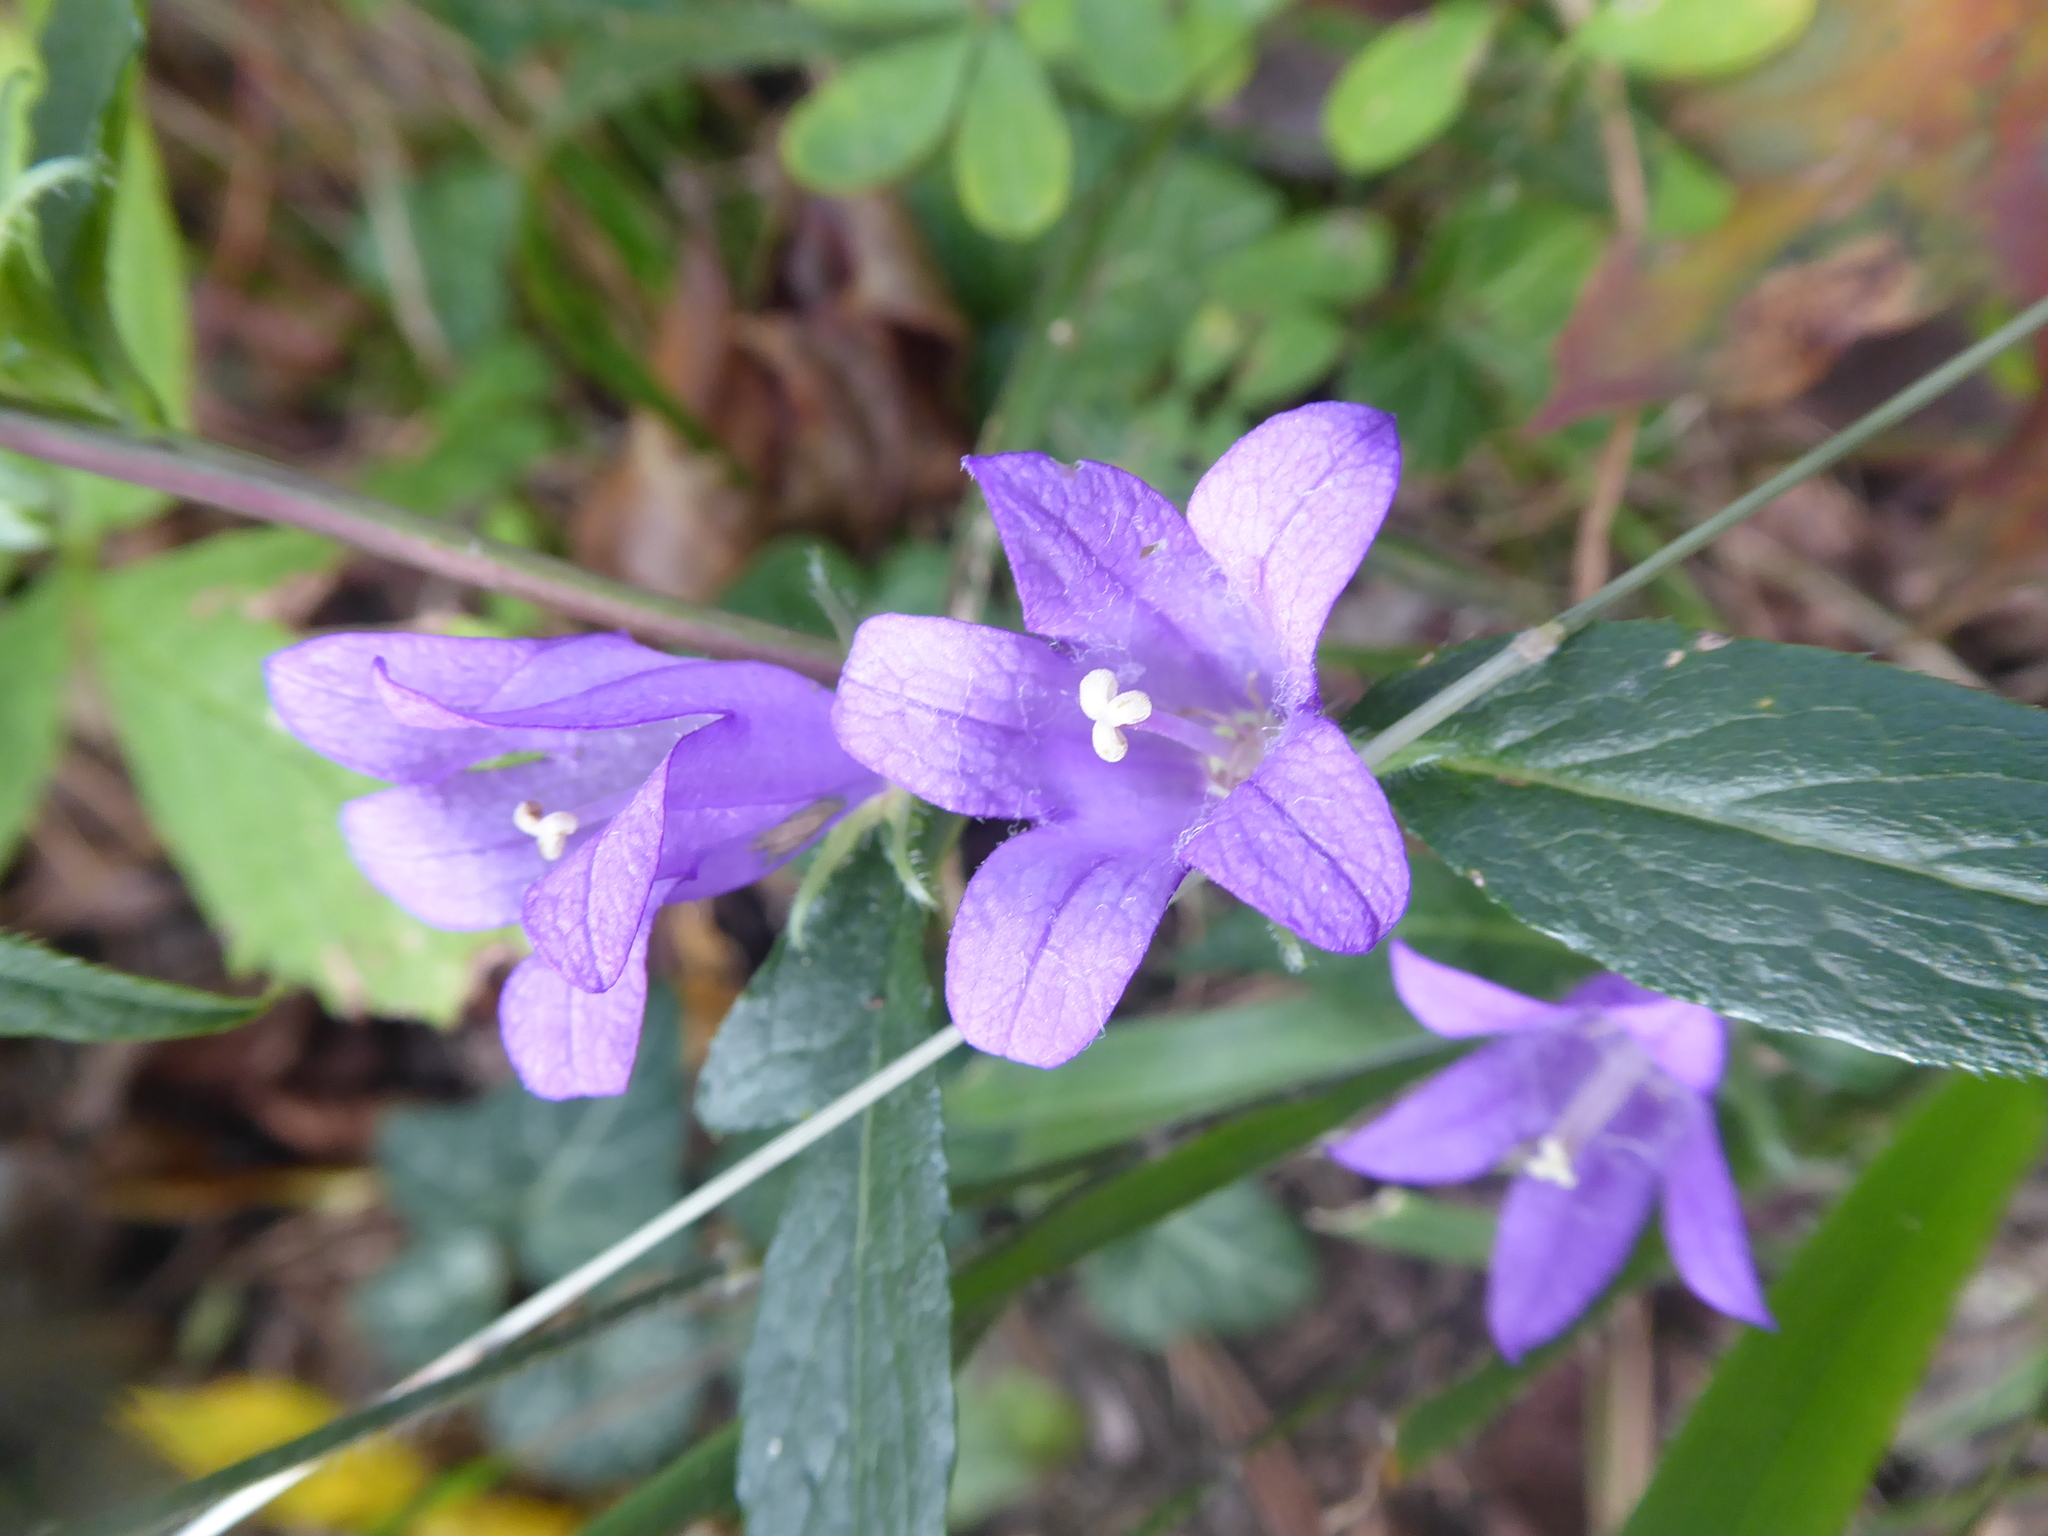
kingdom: Plantae
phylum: Tracheophyta
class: Magnoliopsida
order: Asterales
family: Campanulaceae
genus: Campanula
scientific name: Campanula glomerata
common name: Clustered bellflower
